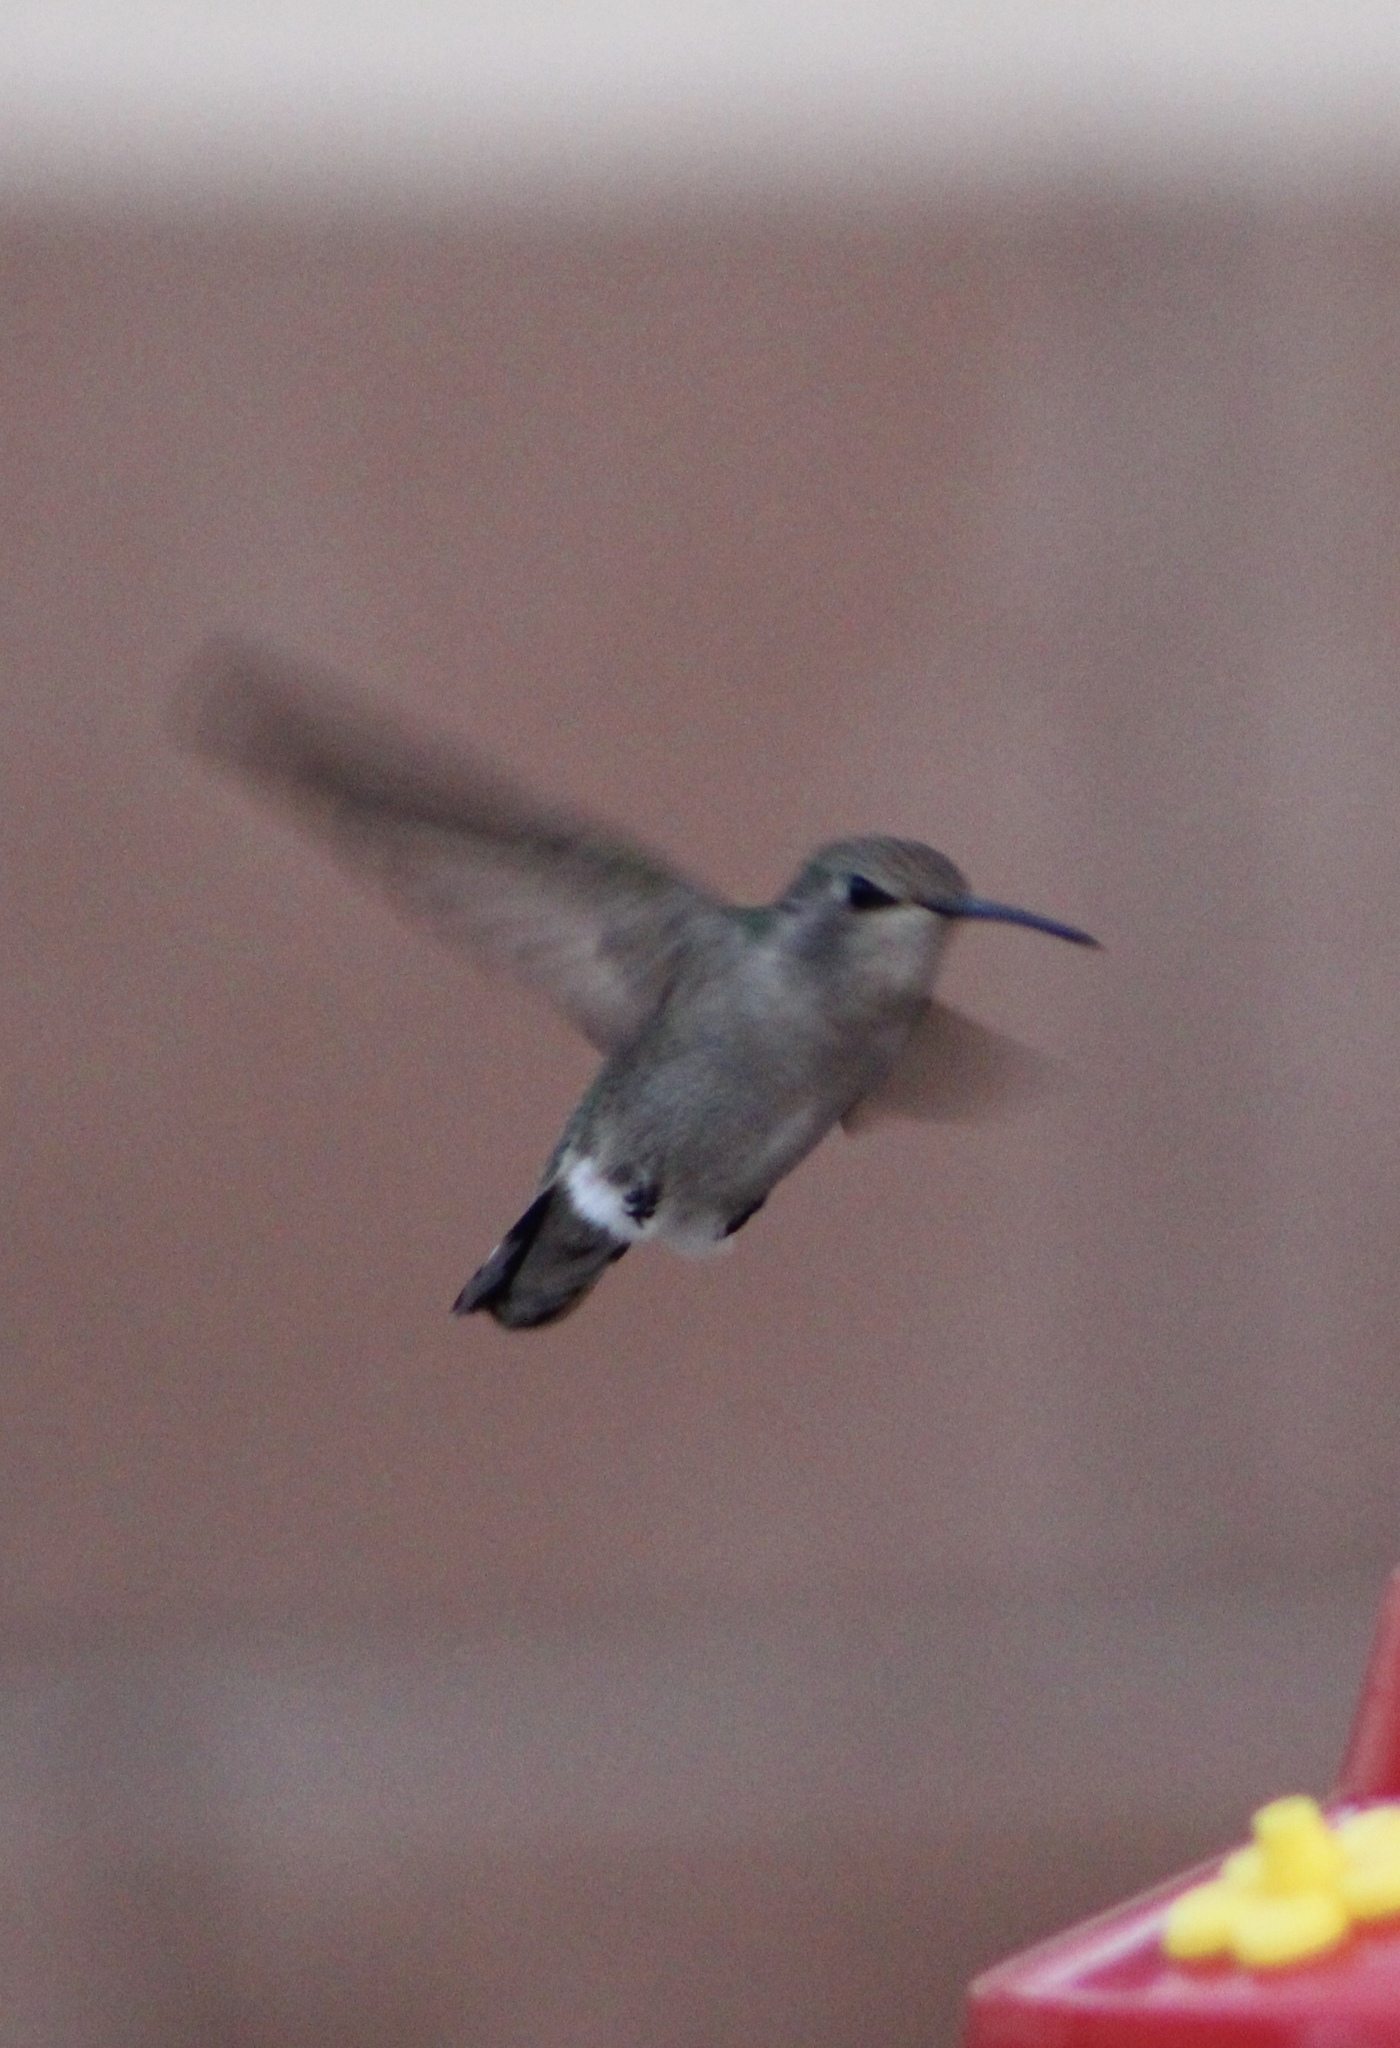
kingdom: Animalia
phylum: Chordata
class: Aves
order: Apodiformes
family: Trochilidae
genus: Calypte
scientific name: Calypte costae
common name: Costa's hummingbird
